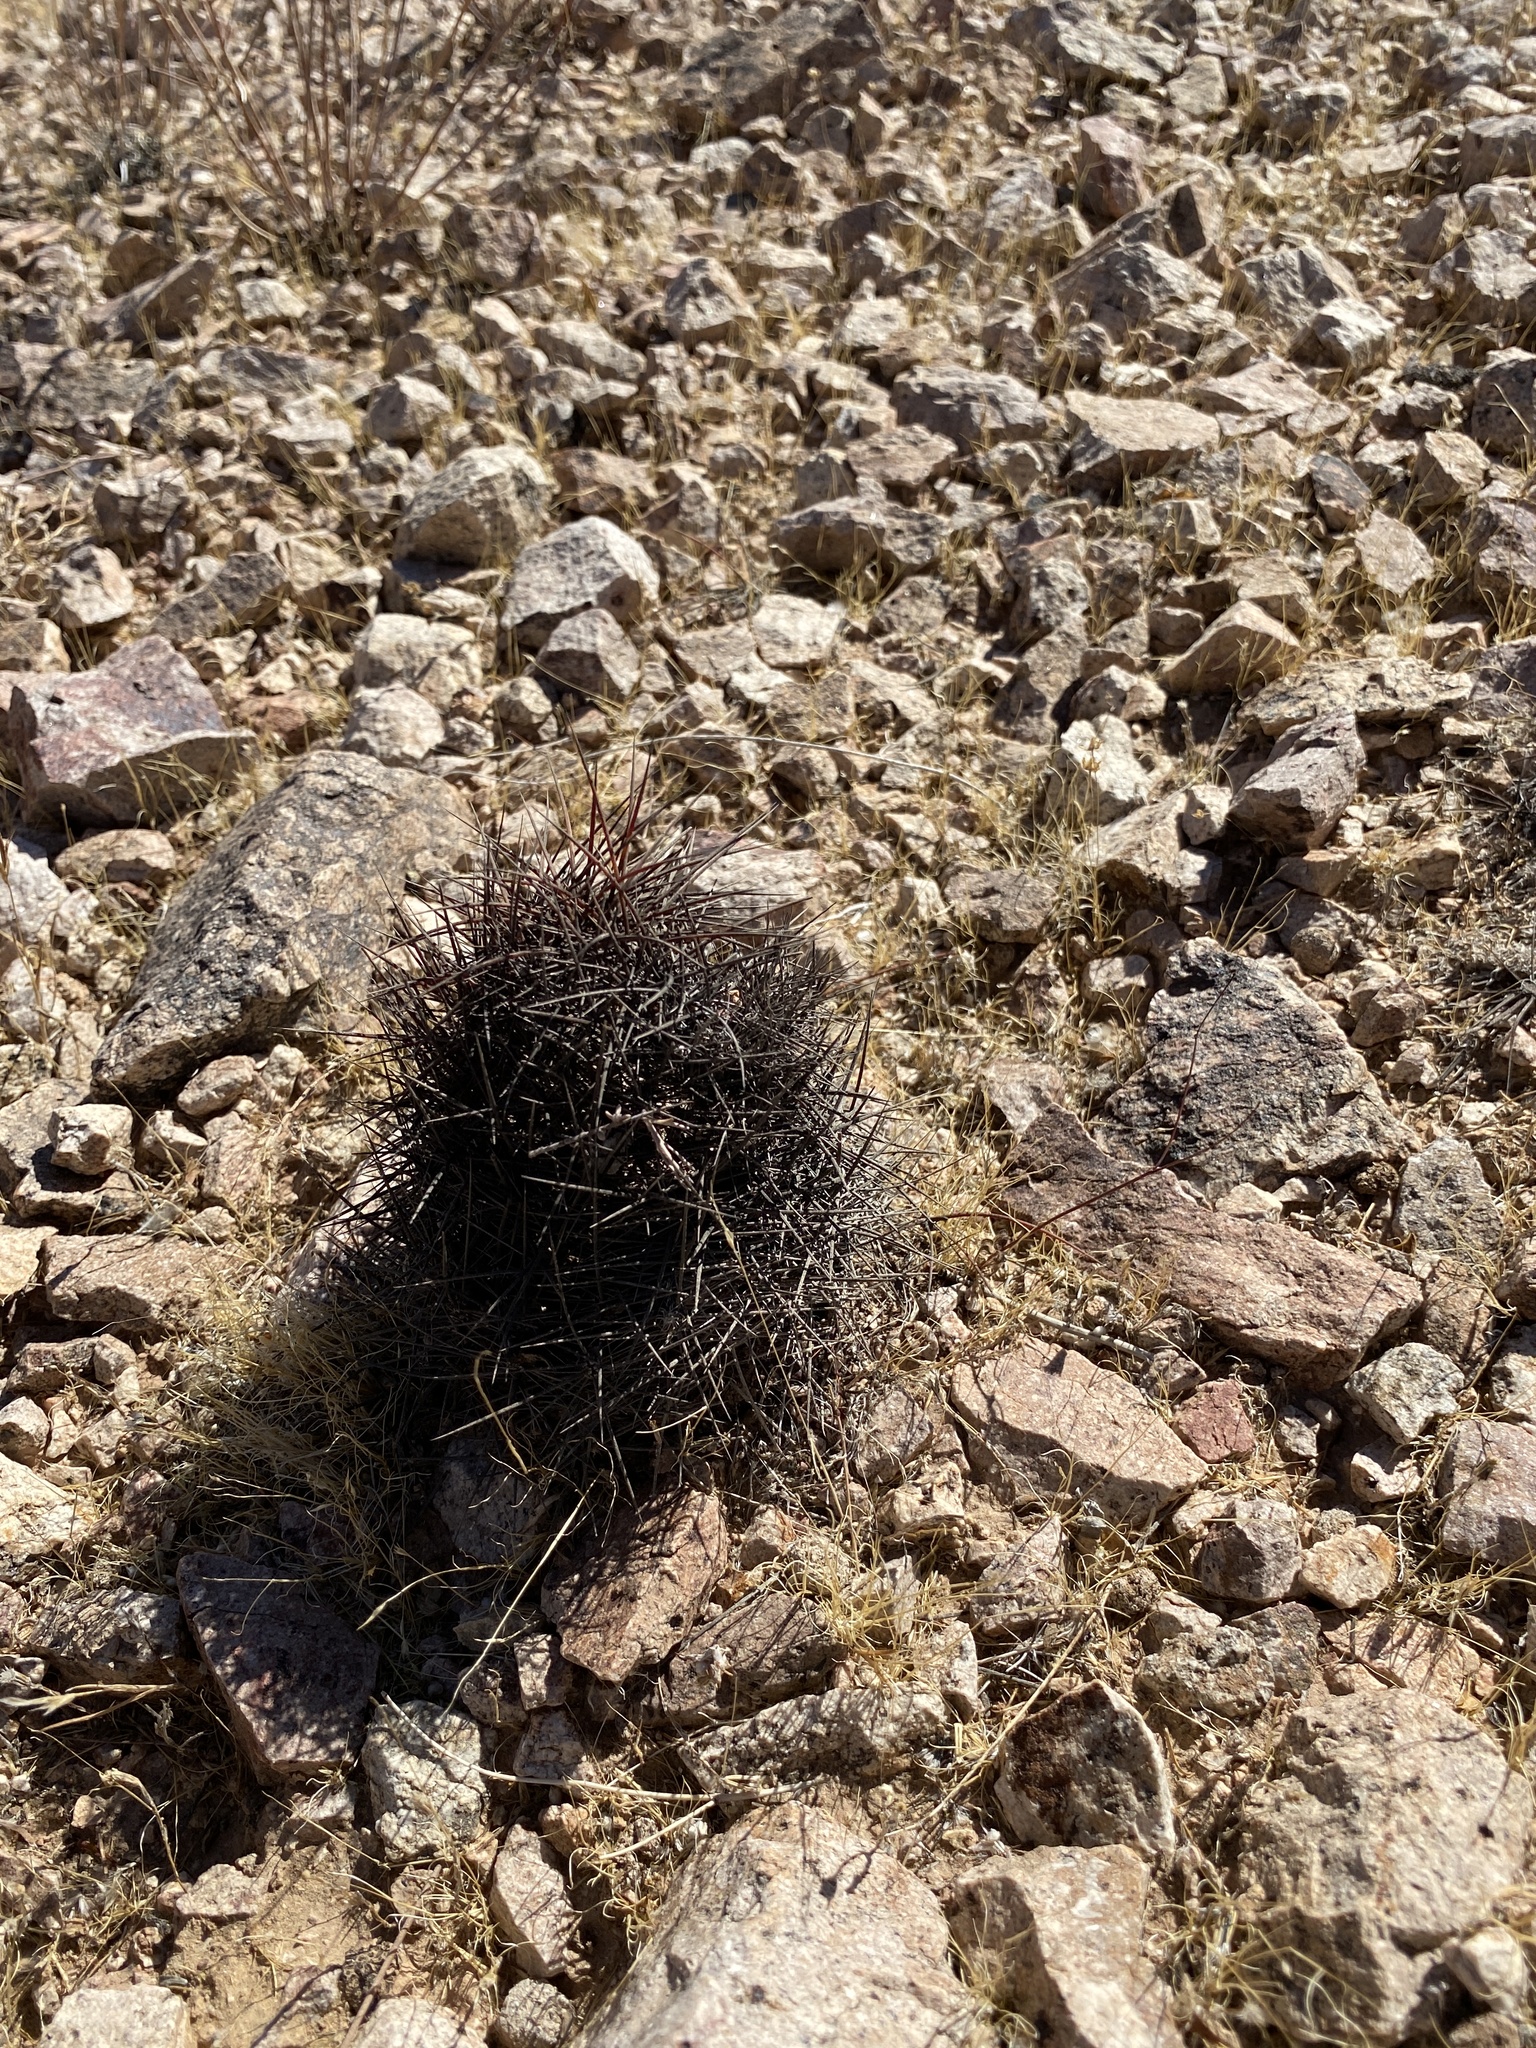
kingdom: Plantae
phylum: Tracheophyta
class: Magnoliopsida
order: Caryophyllales
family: Cactaceae
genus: Sclerocactus
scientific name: Sclerocactus johnsonii
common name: Eight-spine fishhook cactus
